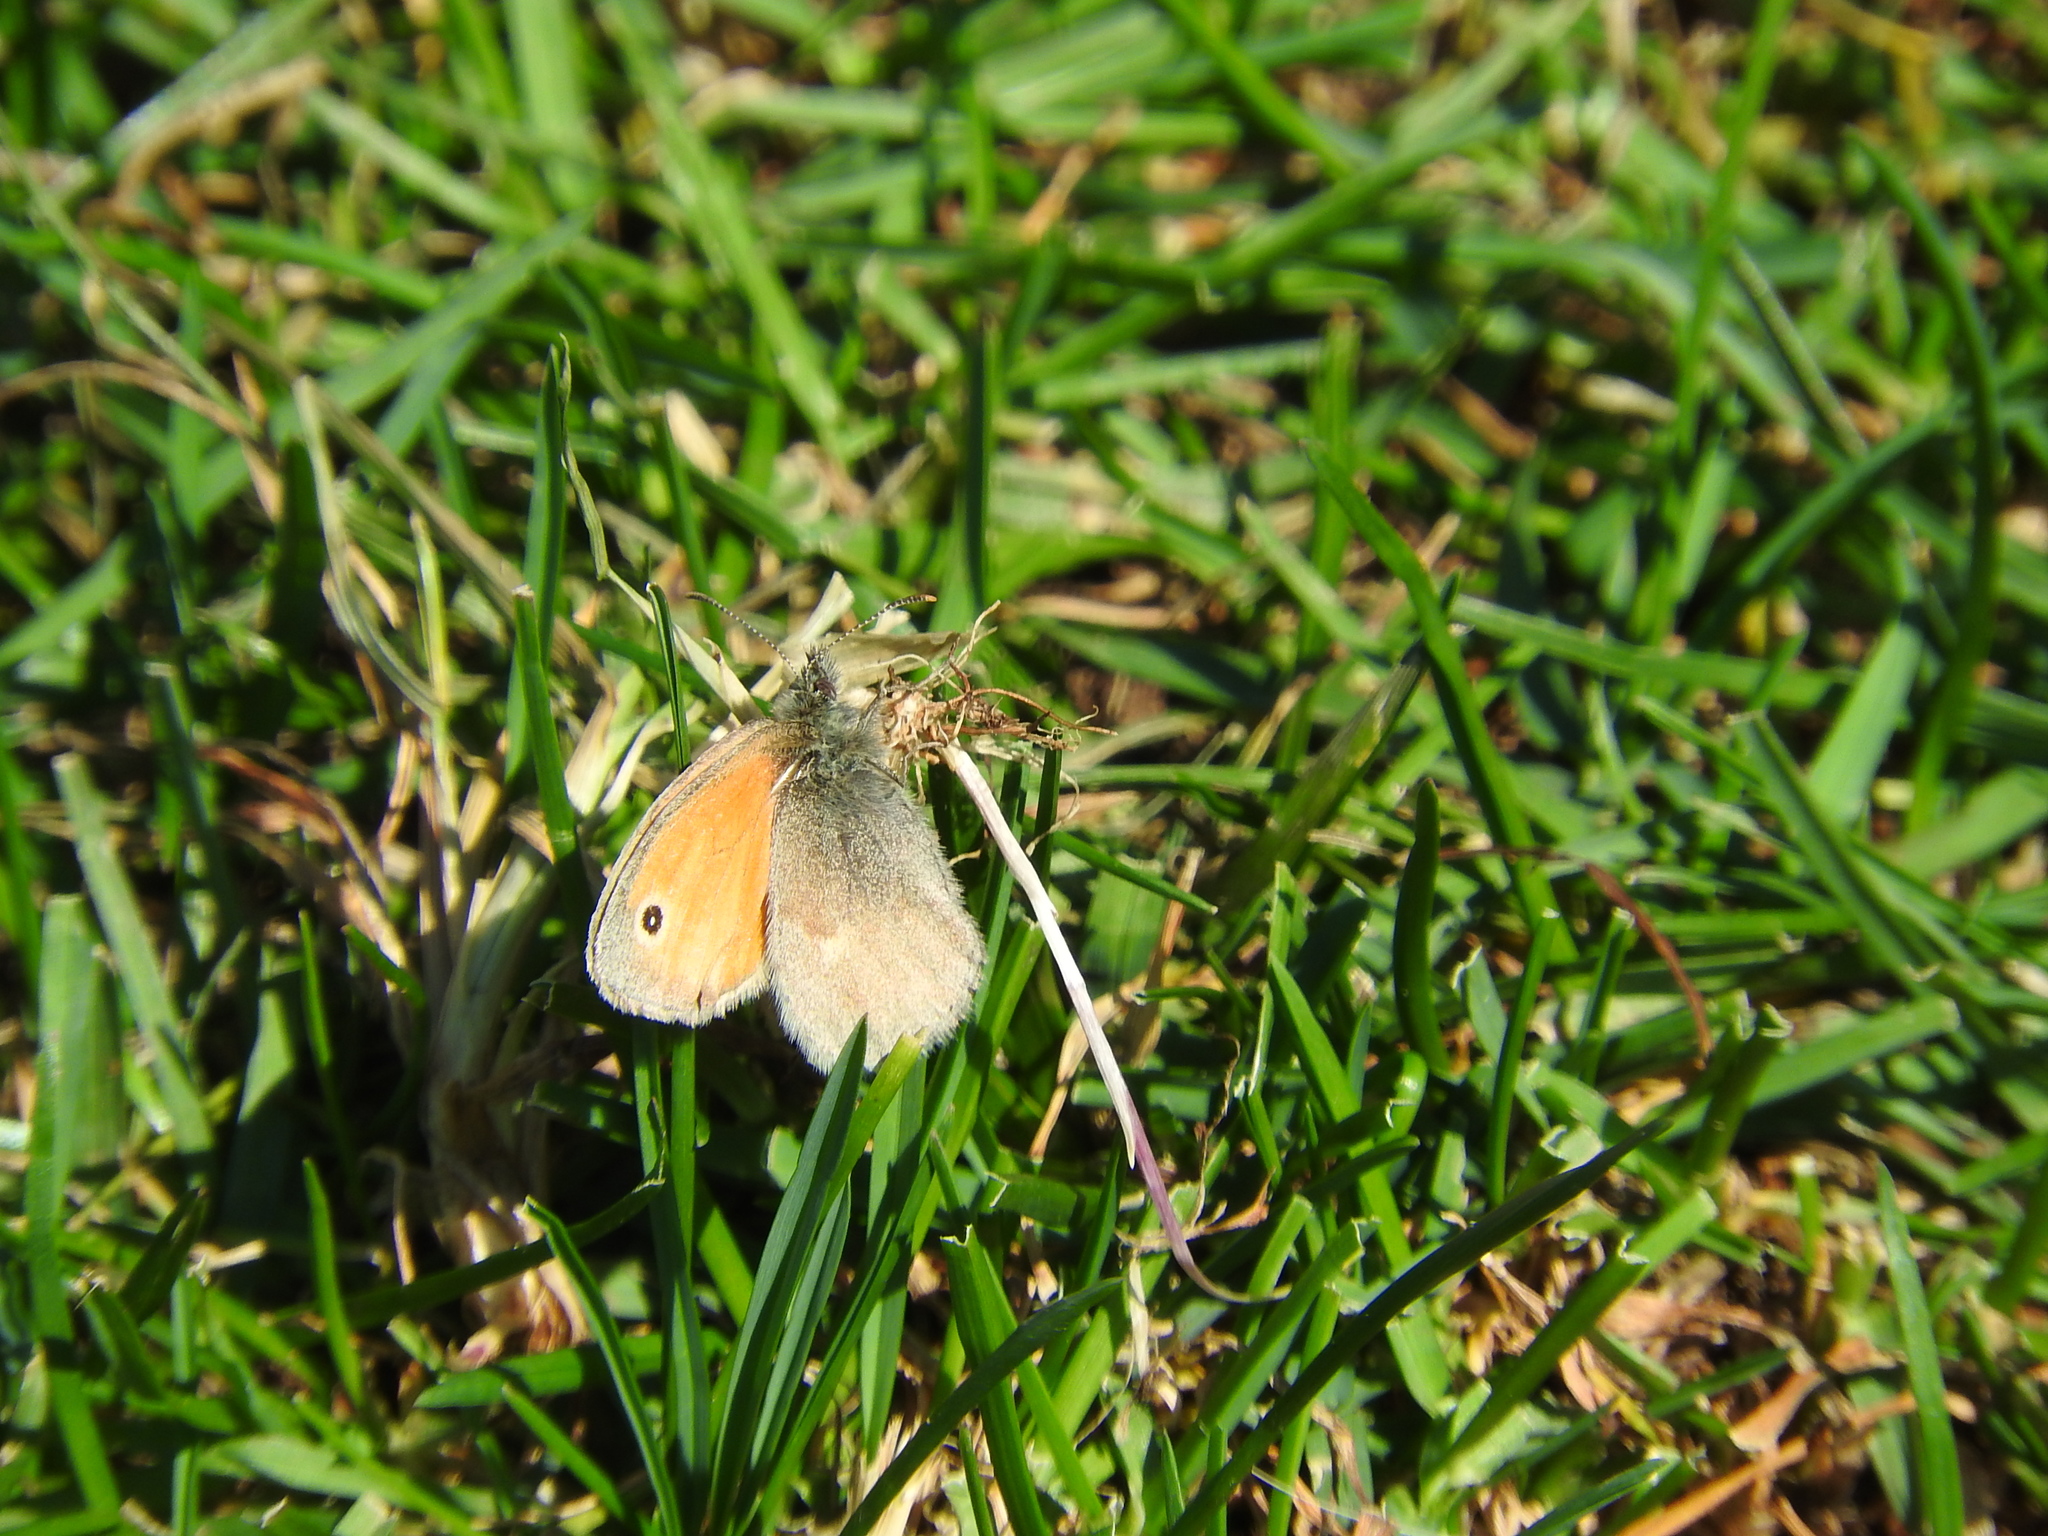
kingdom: Animalia
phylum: Arthropoda
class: Insecta
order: Lepidoptera
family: Nymphalidae
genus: Coenonympha
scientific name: Coenonympha pamphilus
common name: Small heath
